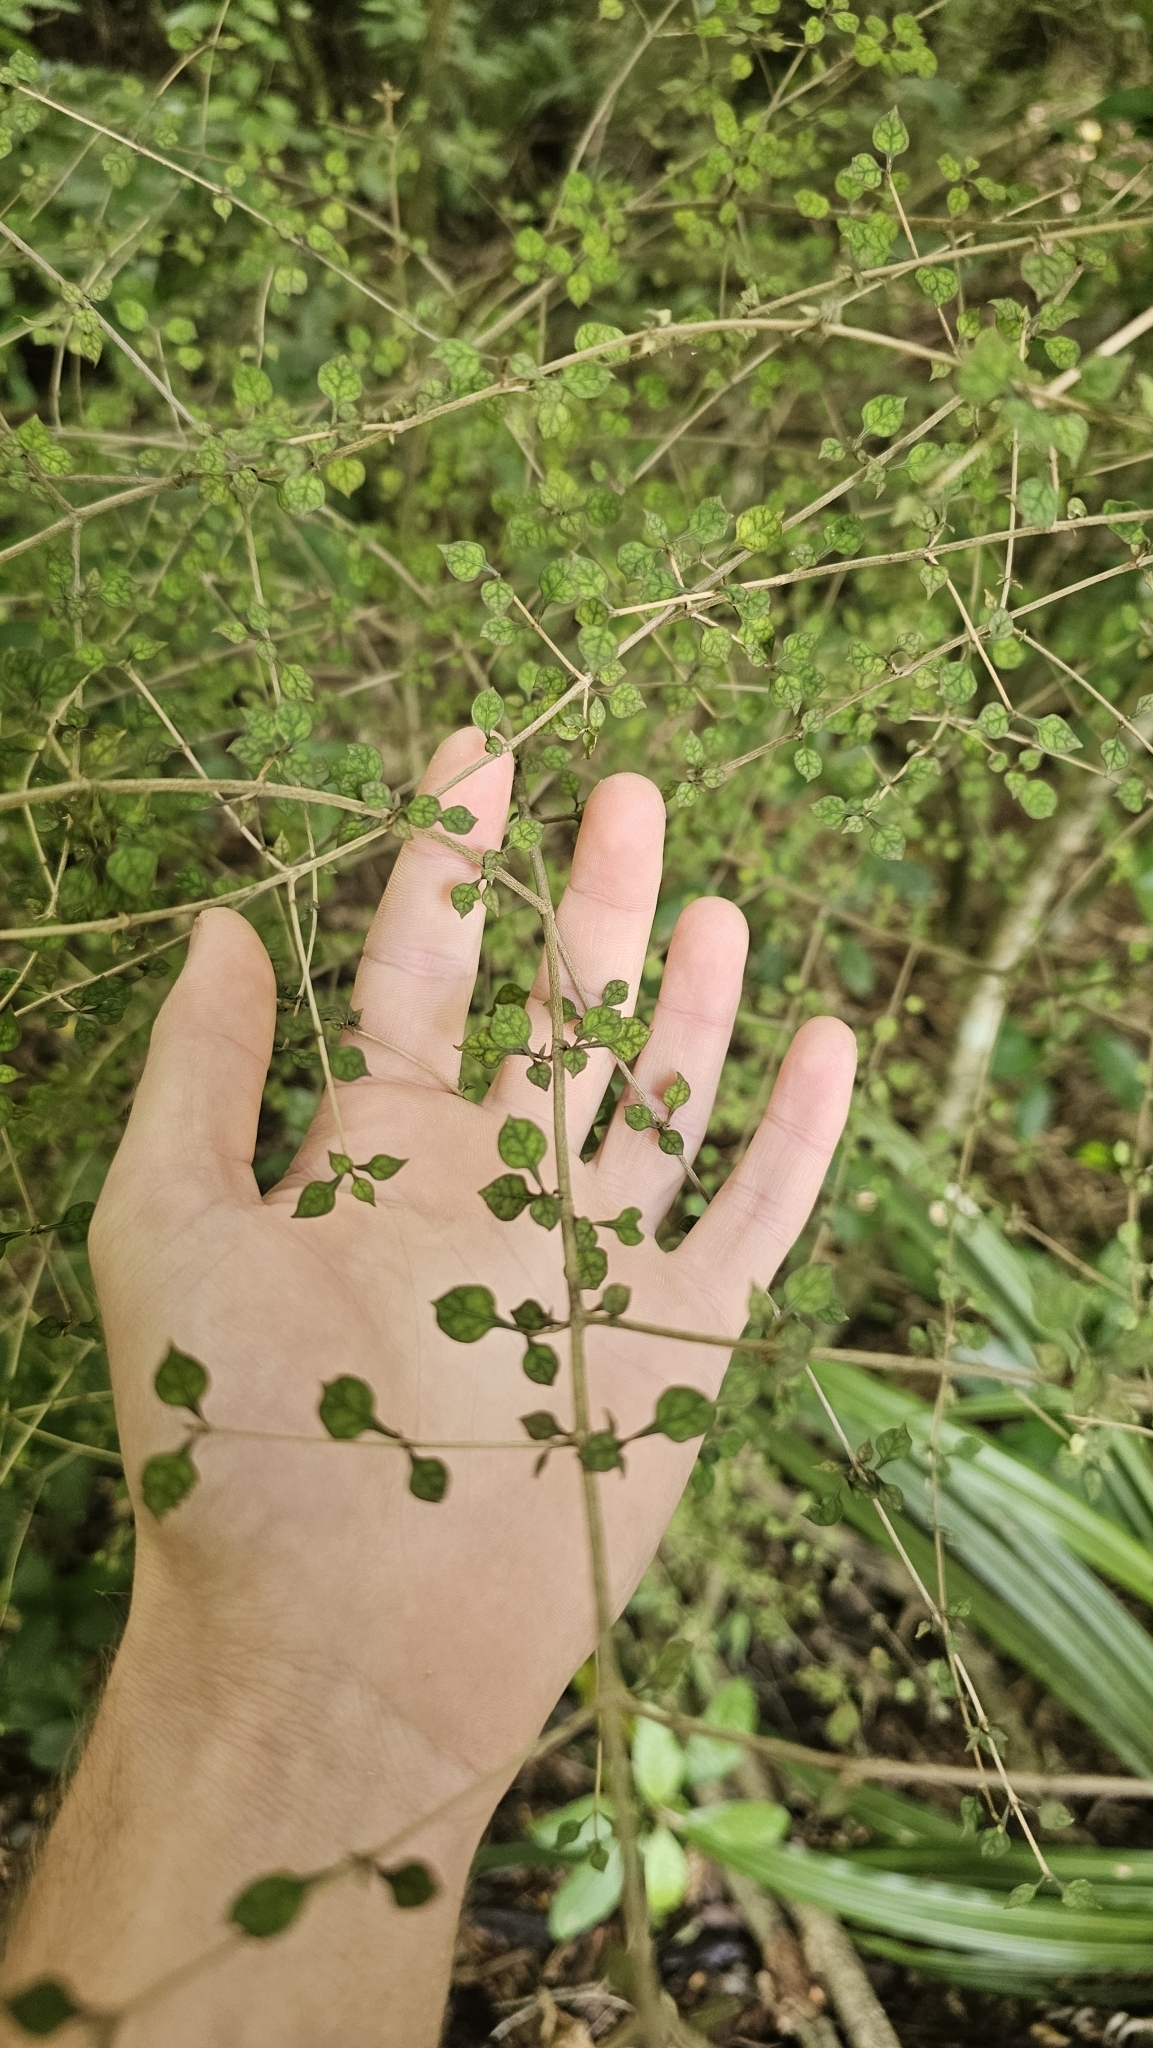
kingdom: Plantae
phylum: Tracheophyta
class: Magnoliopsida
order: Gentianales
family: Rubiaceae
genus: Coprosma
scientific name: Coprosma areolata
